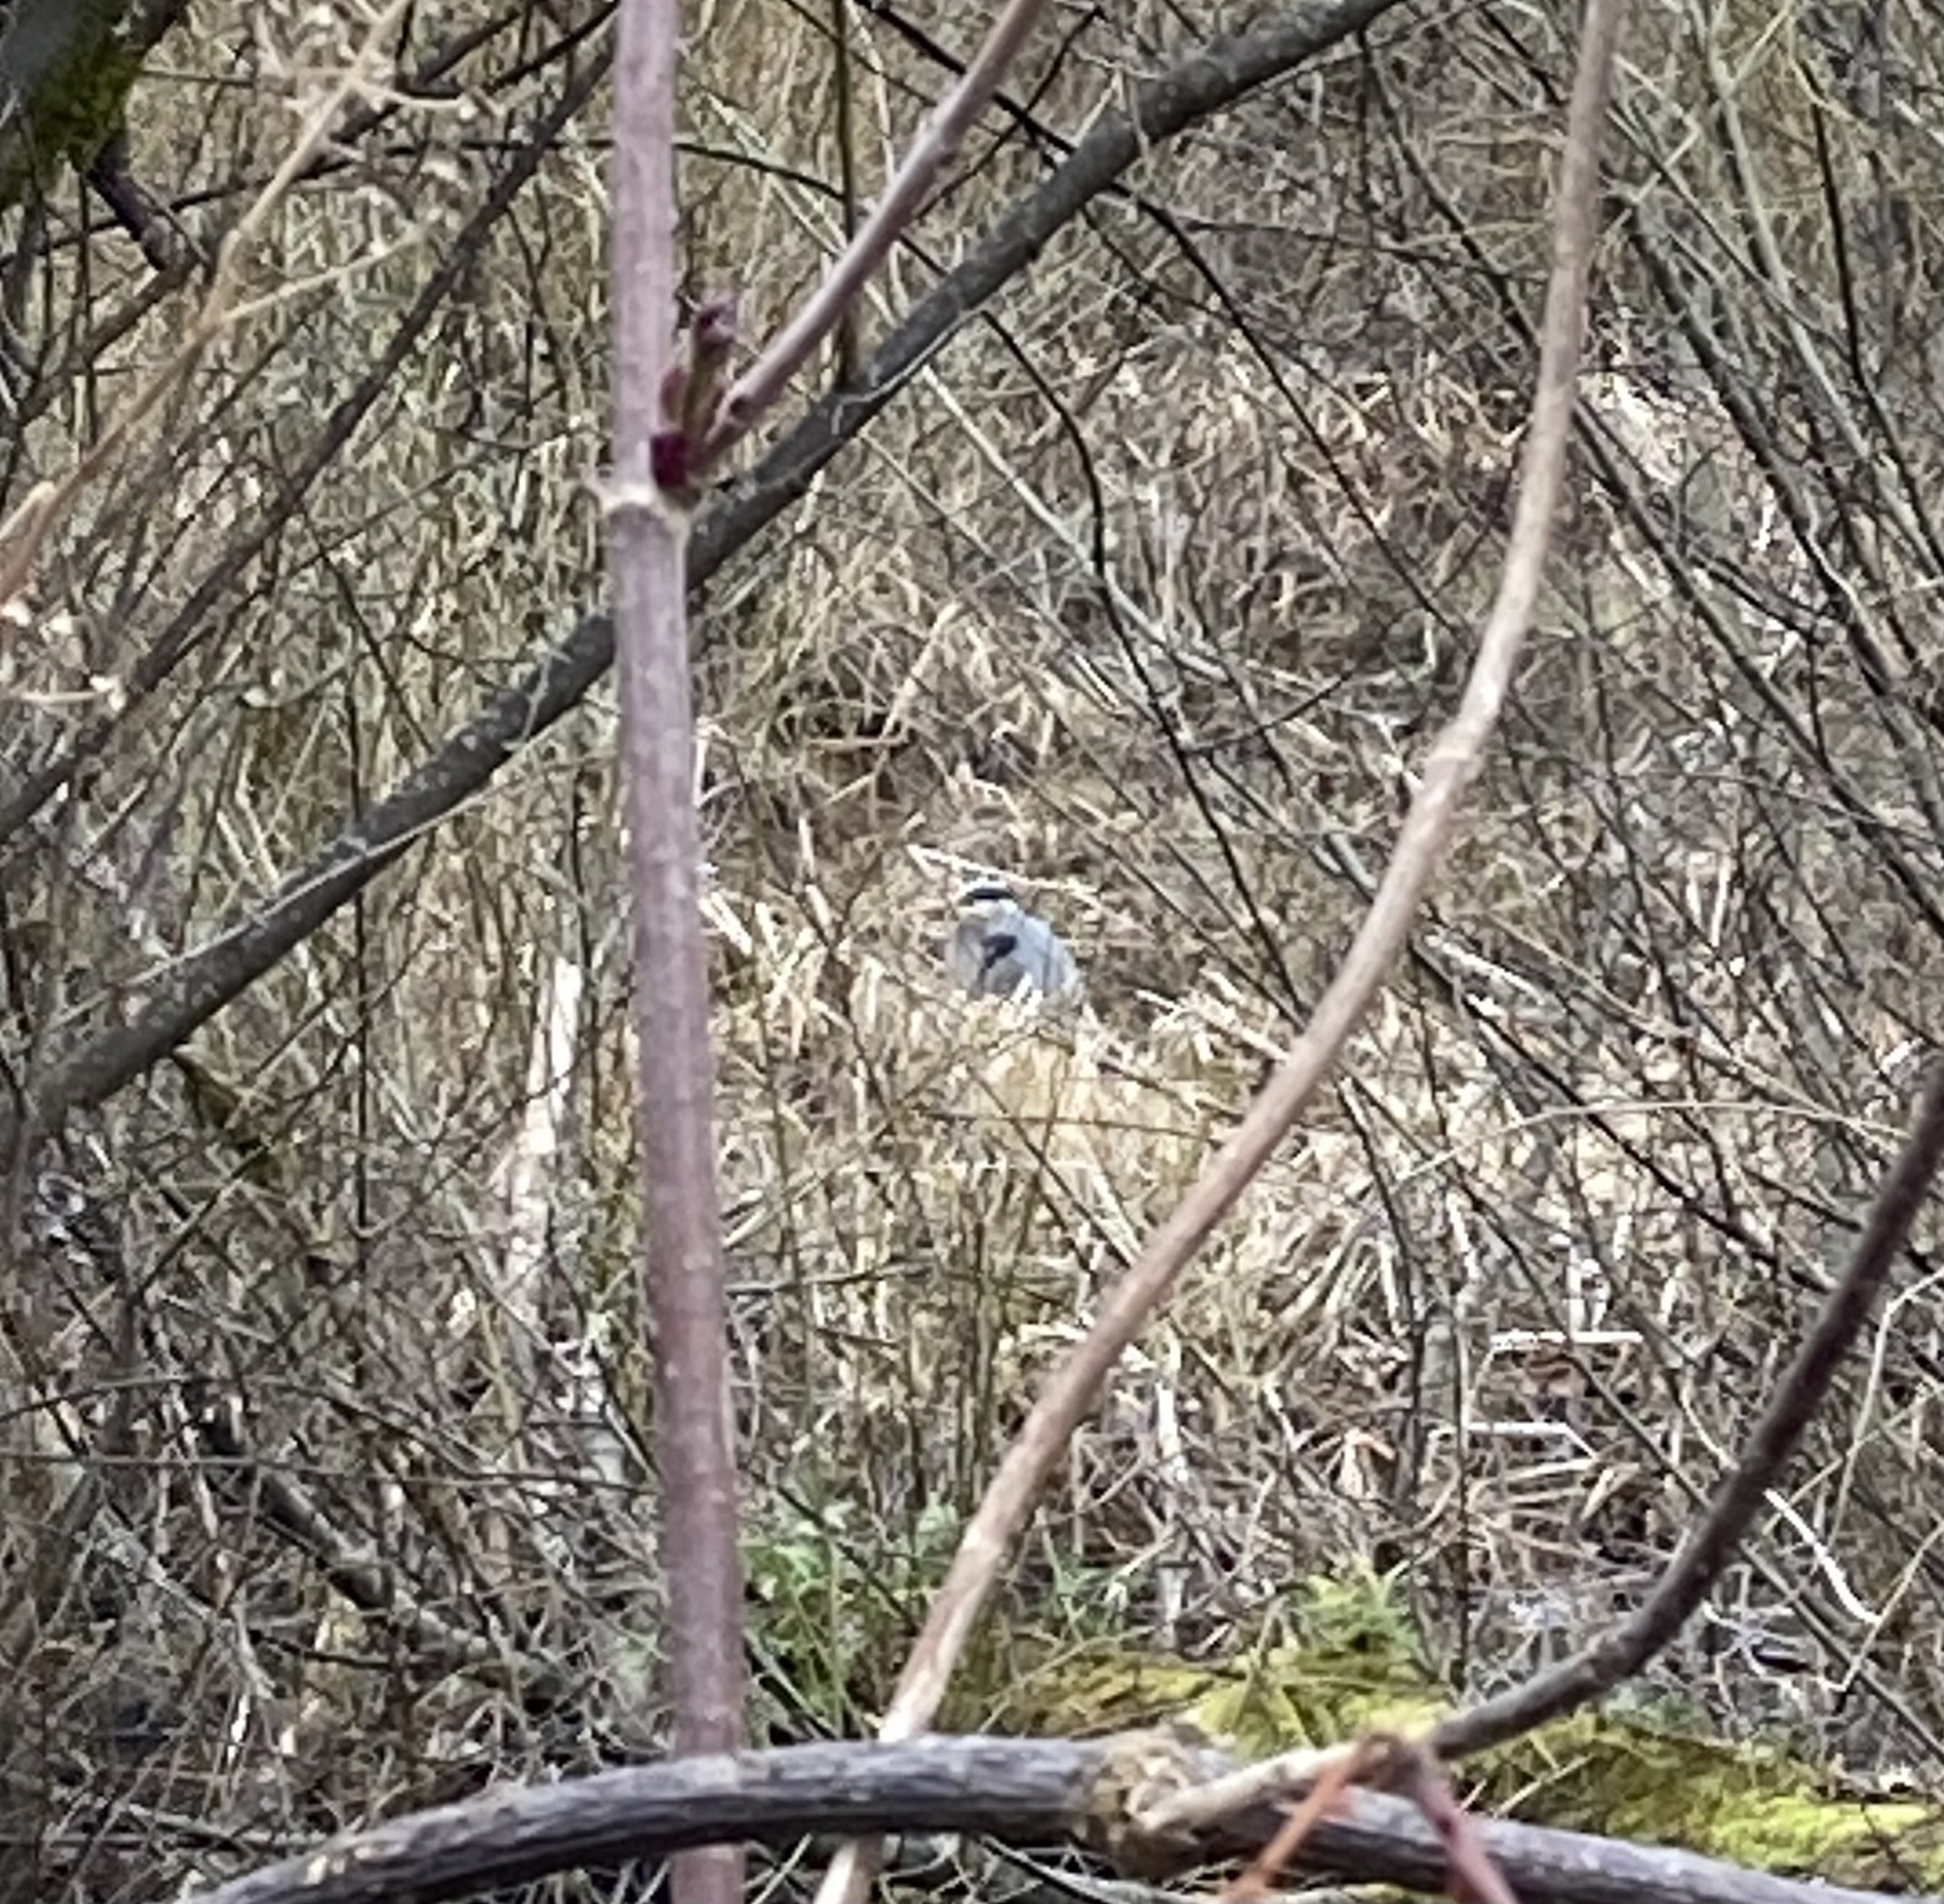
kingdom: Animalia
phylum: Chordata
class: Aves
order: Pelecaniformes
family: Ardeidae
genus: Ardea
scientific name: Ardea herodias
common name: Great blue heron
